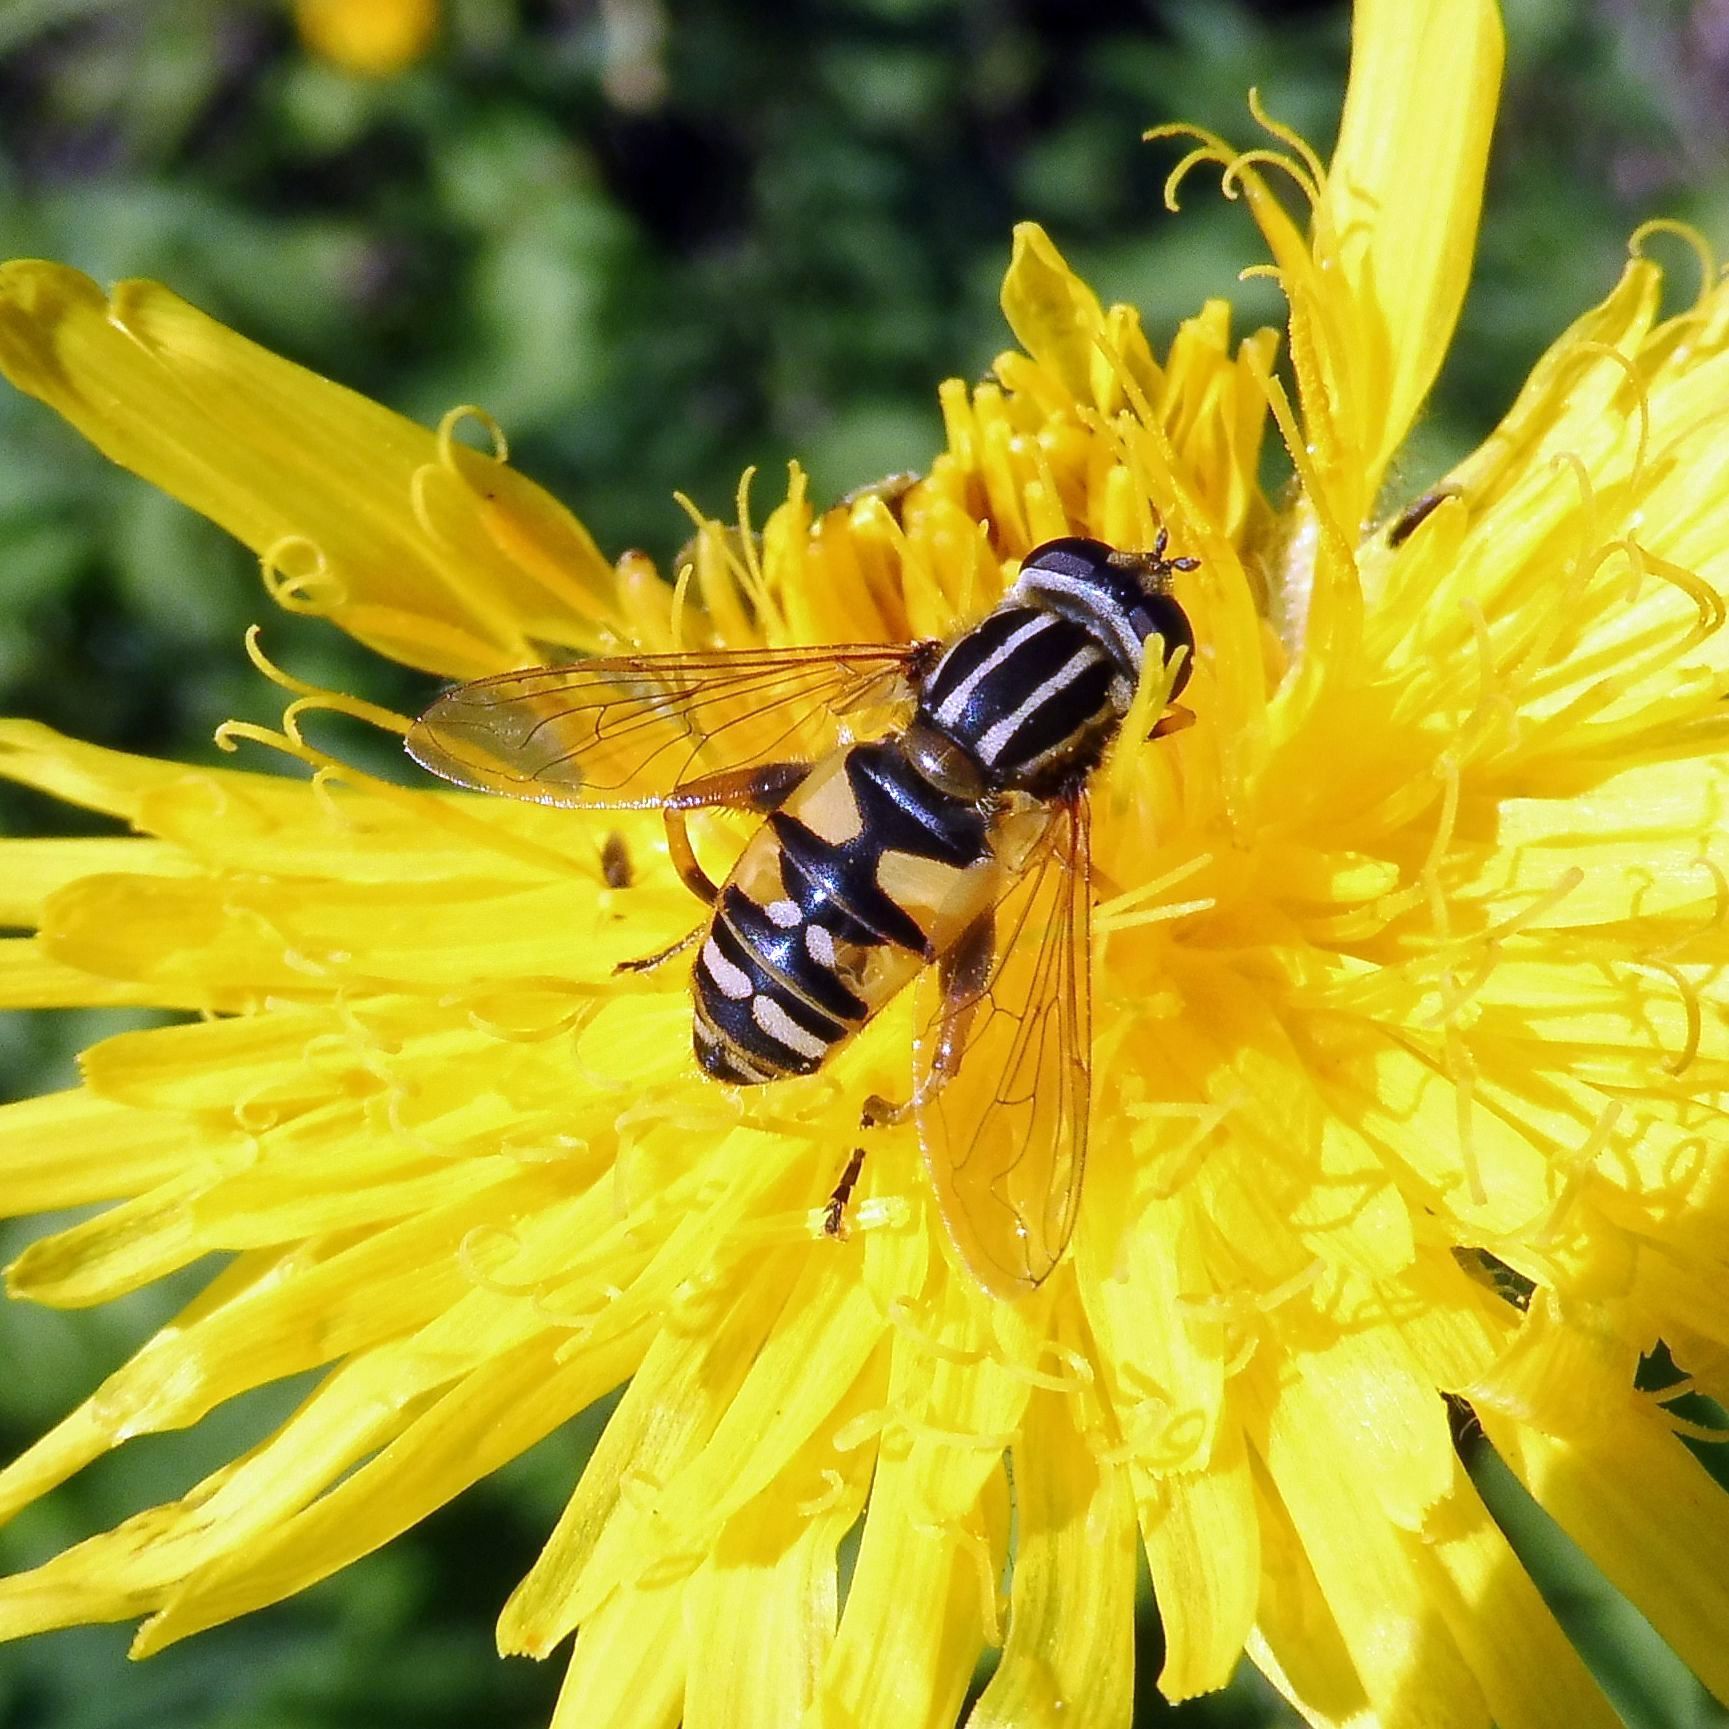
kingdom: Animalia
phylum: Arthropoda
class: Insecta
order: Diptera
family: Syrphidae
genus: Helophilus
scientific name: Helophilus pendulus
